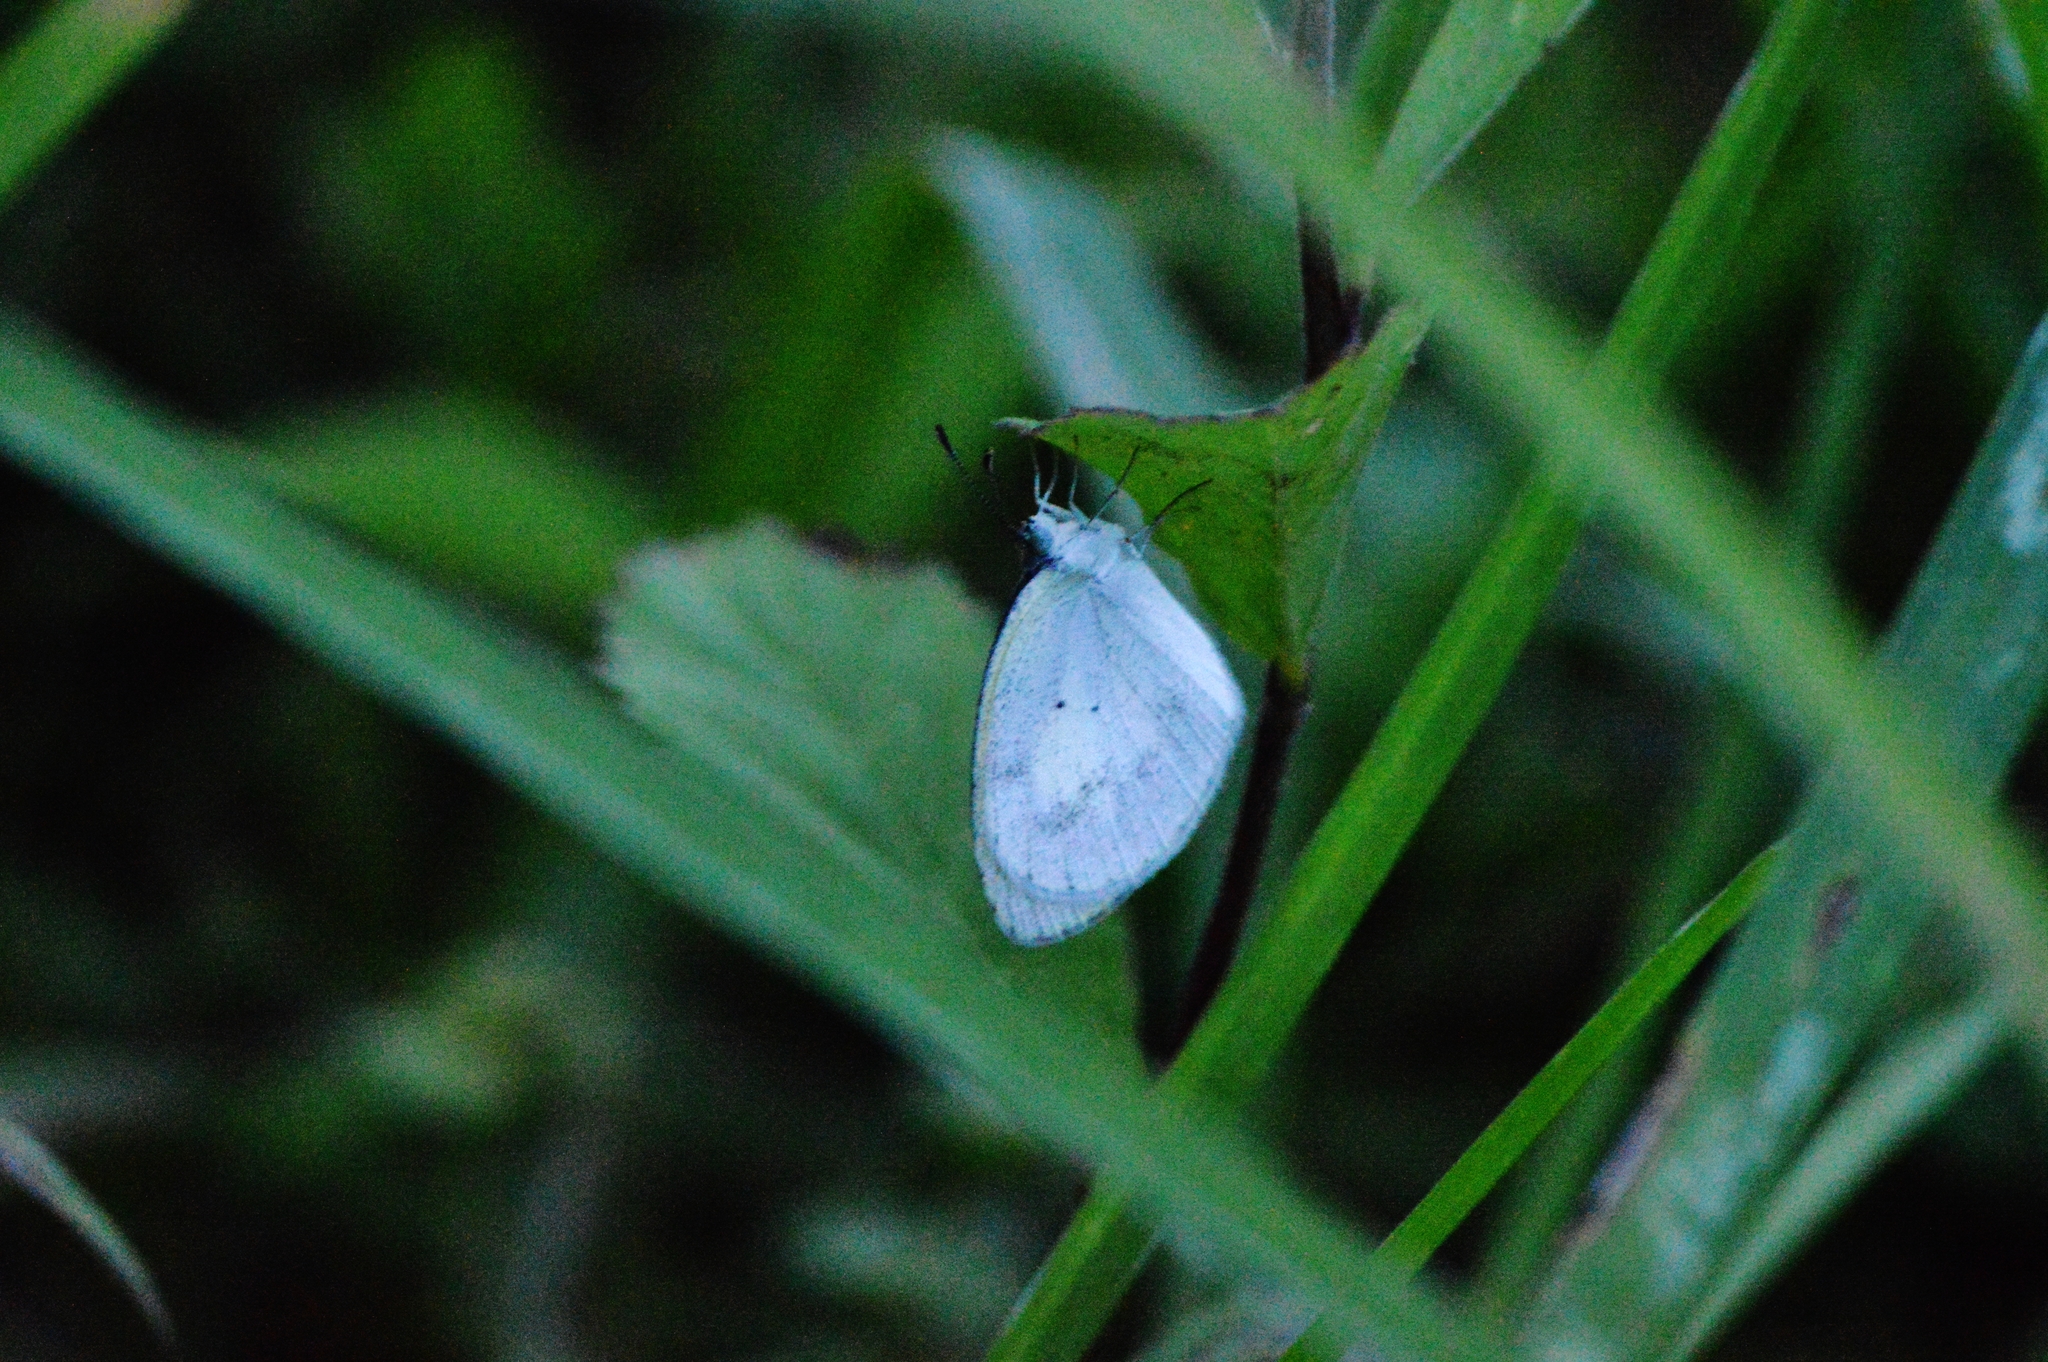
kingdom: Animalia
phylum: Arthropoda
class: Insecta
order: Lepidoptera
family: Pieridae
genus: Eurema
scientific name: Eurema elathea
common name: Banded yellow
